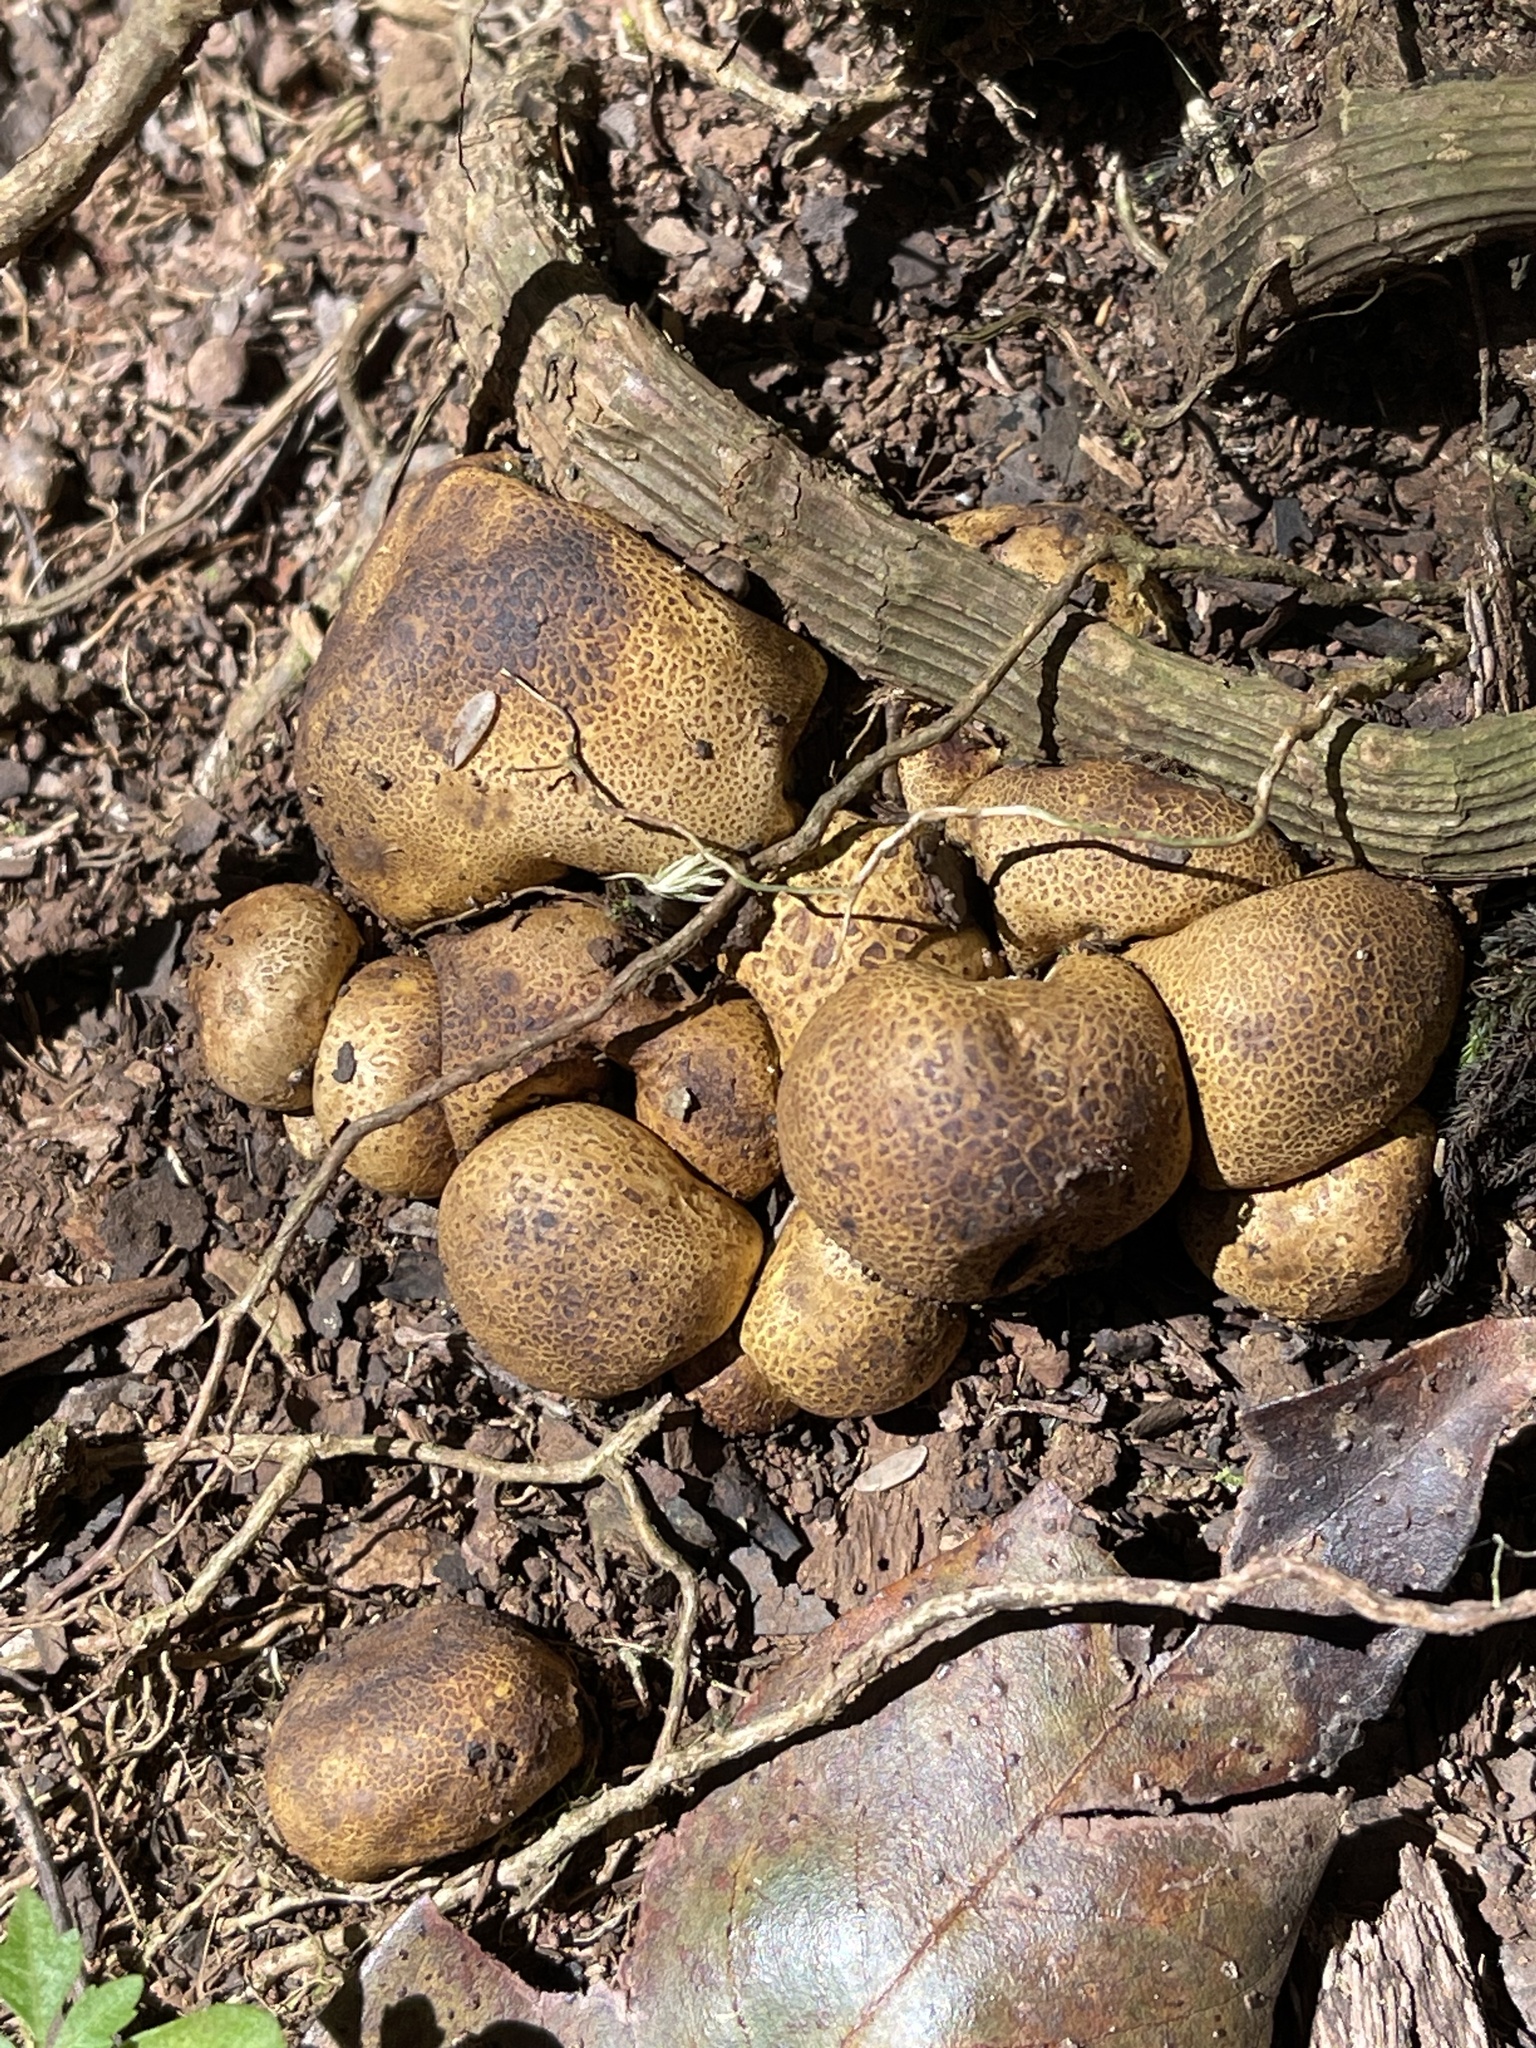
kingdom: Fungi
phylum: Basidiomycota
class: Agaricomycetes
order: Boletales
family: Sclerodermataceae
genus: Scleroderma
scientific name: Scleroderma citrinum
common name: Common earthball
